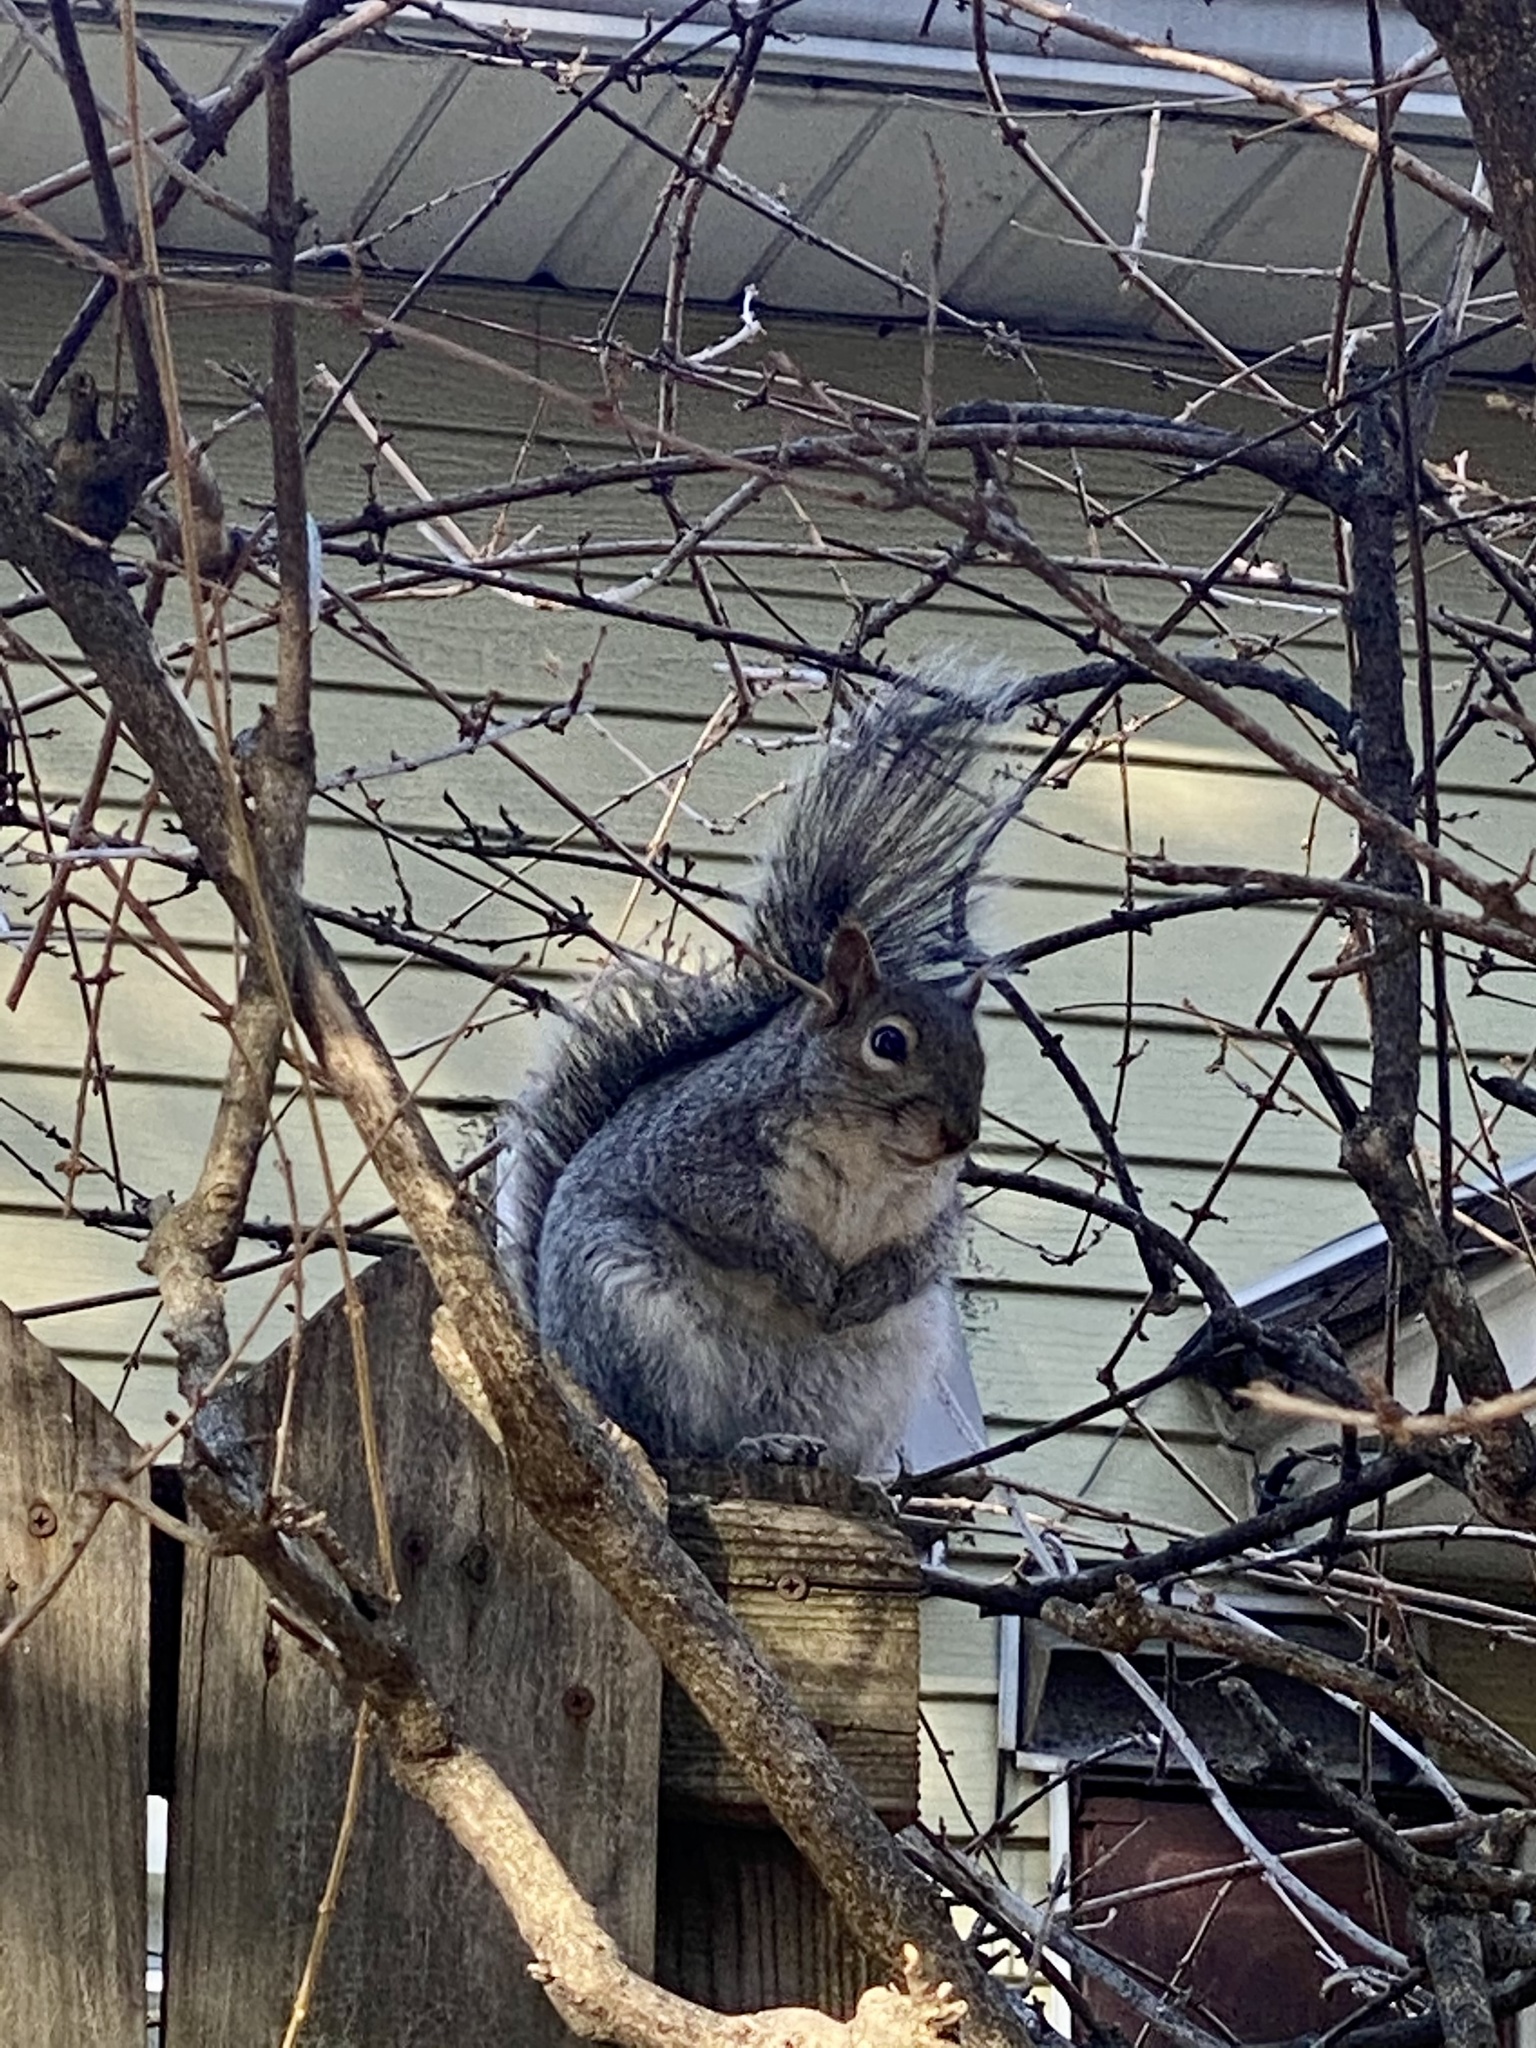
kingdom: Animalia
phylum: Chordata
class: Mammalia
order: Rodentia
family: Sciuridae
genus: Sciurus
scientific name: Sciurus carolinensis
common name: Eastern gray squirrel
